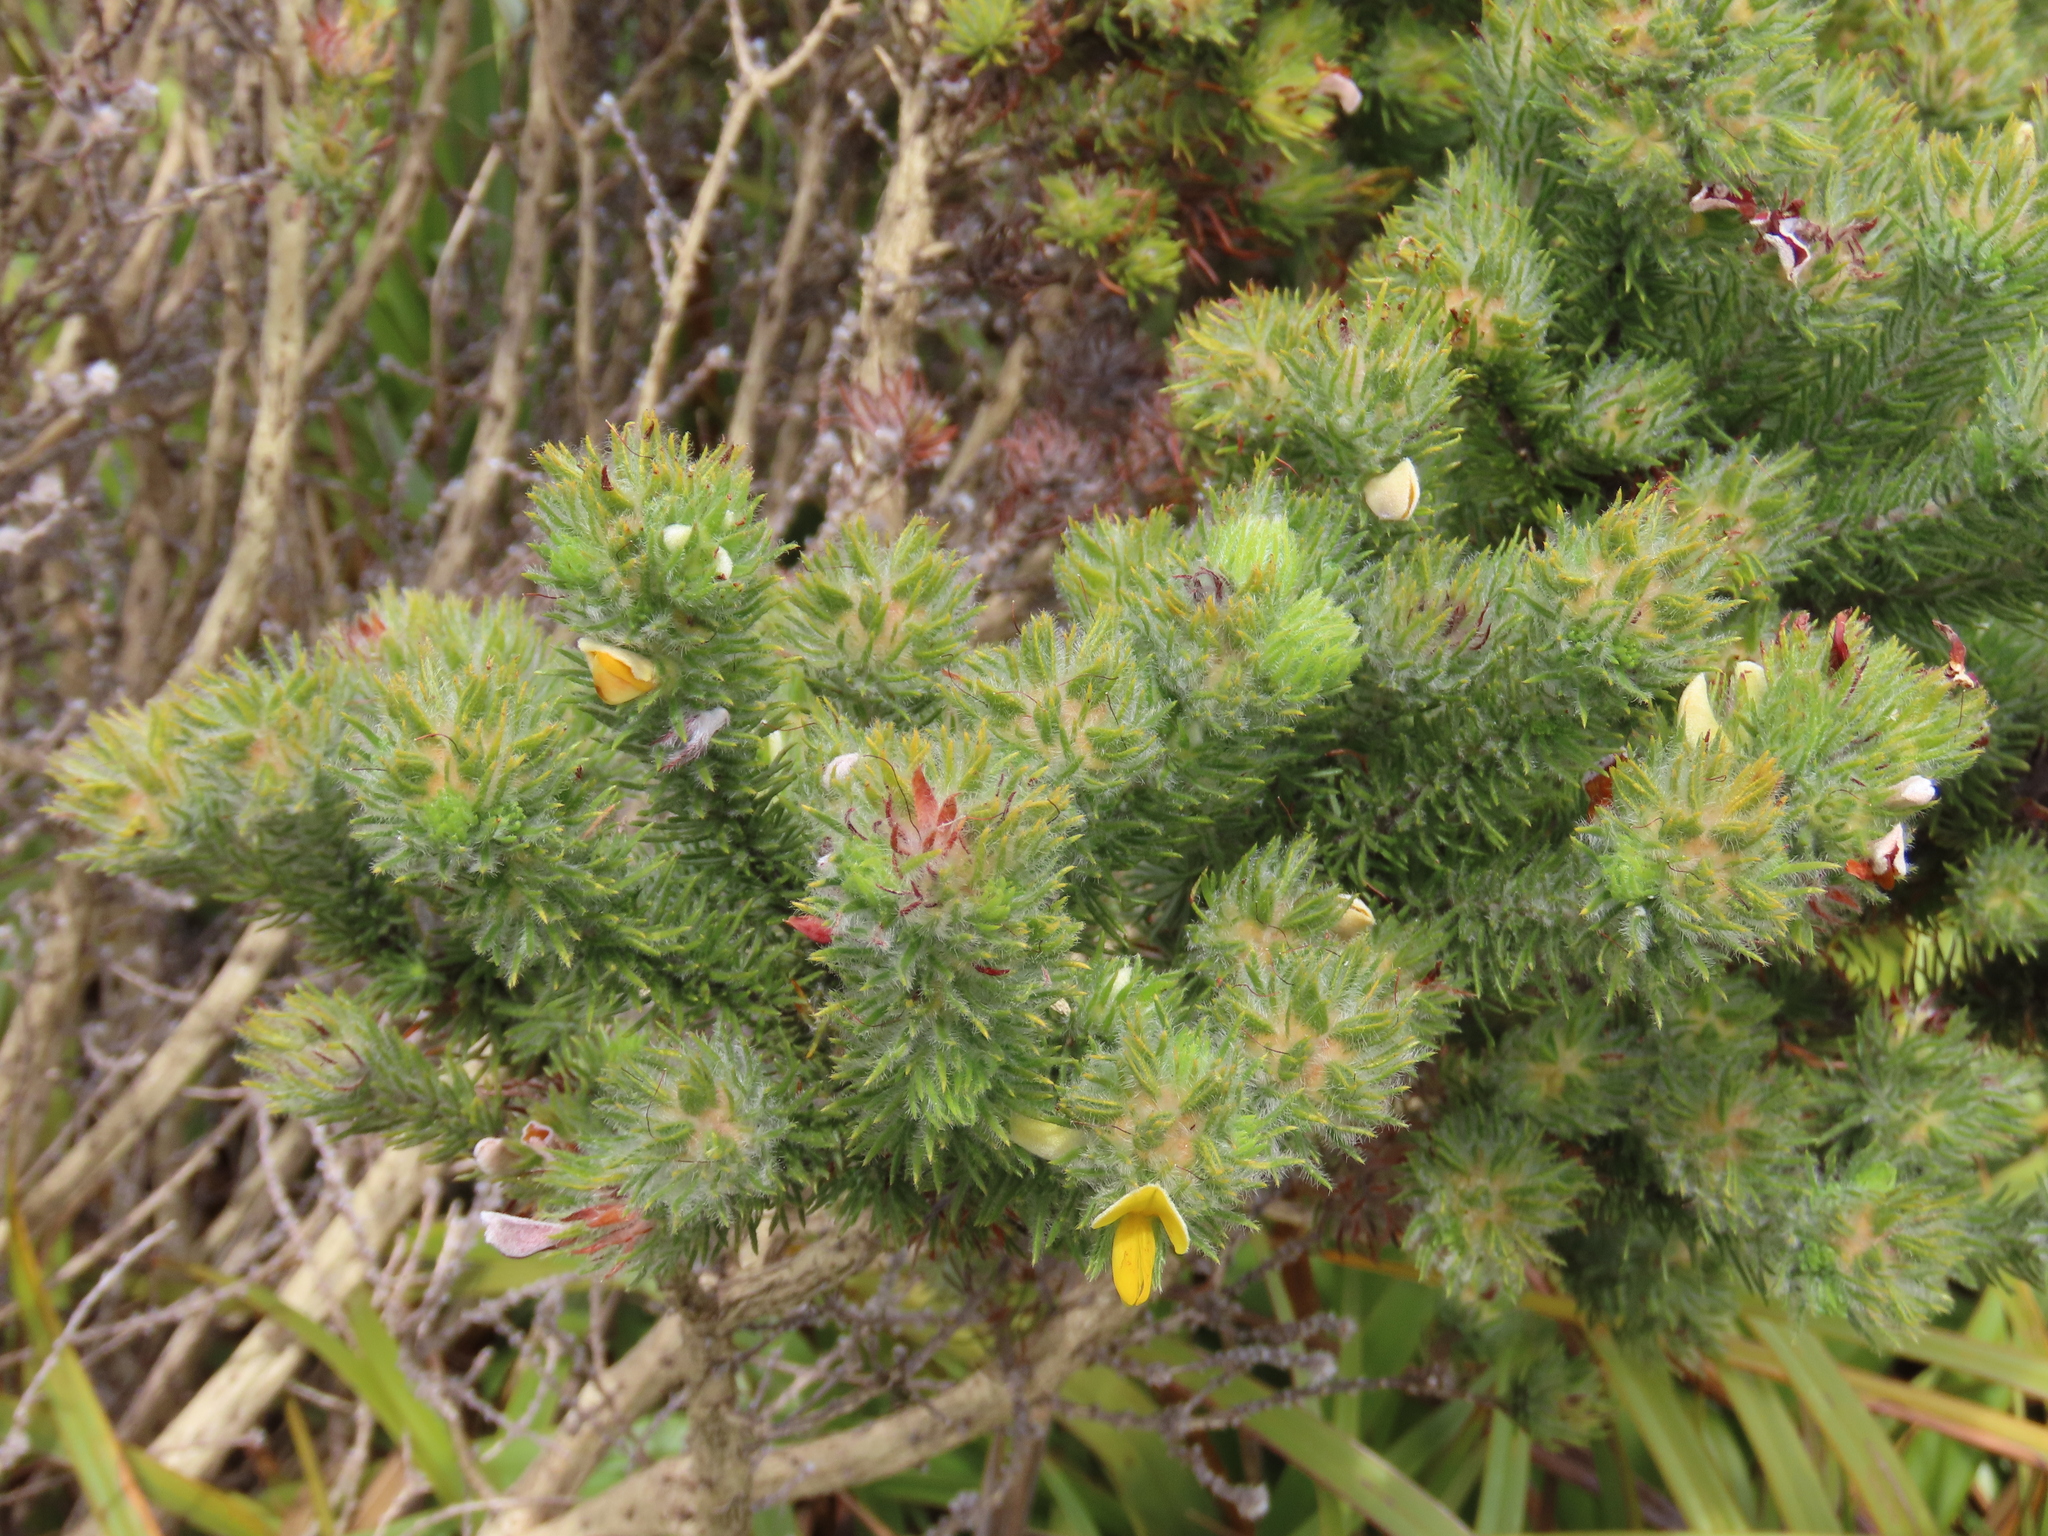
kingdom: Plantae
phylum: Tracheophyta
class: Magnoliopsida
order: Fabales
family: Fabaceae
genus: Aspalathus
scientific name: Aspalathus ciliaris
